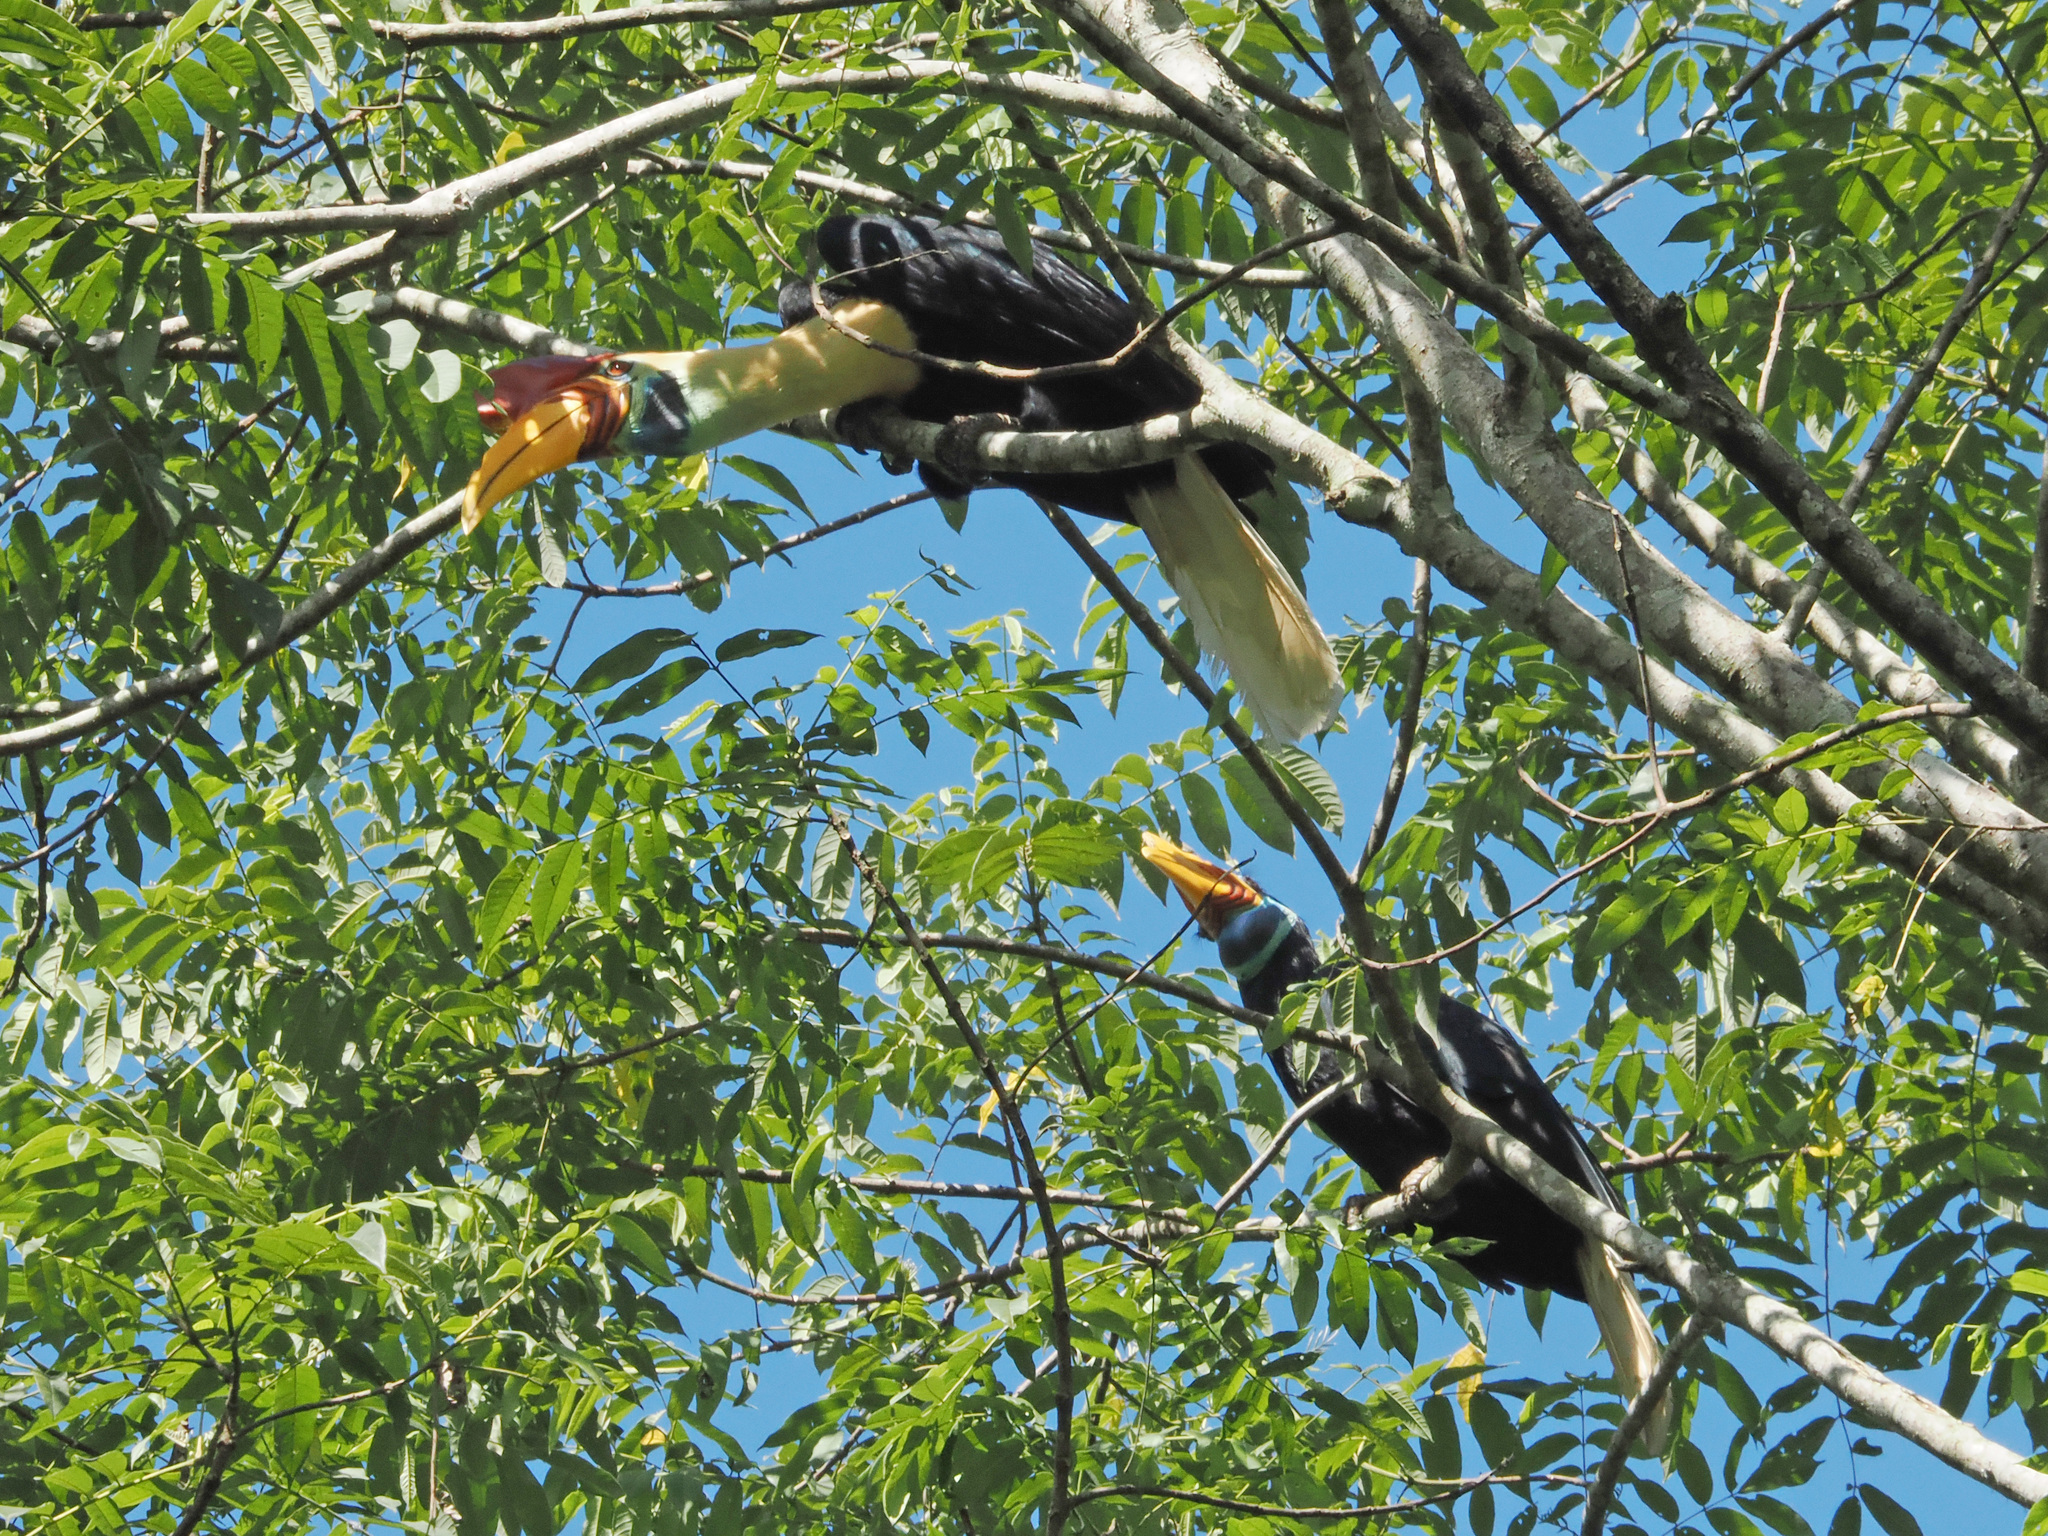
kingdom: Animalia
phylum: Chordata
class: Aves
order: Bucerotiformes
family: Bucerotidae
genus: Rhyticeros
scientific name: Rhyticeros cassidix
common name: Knobbed hornbill
